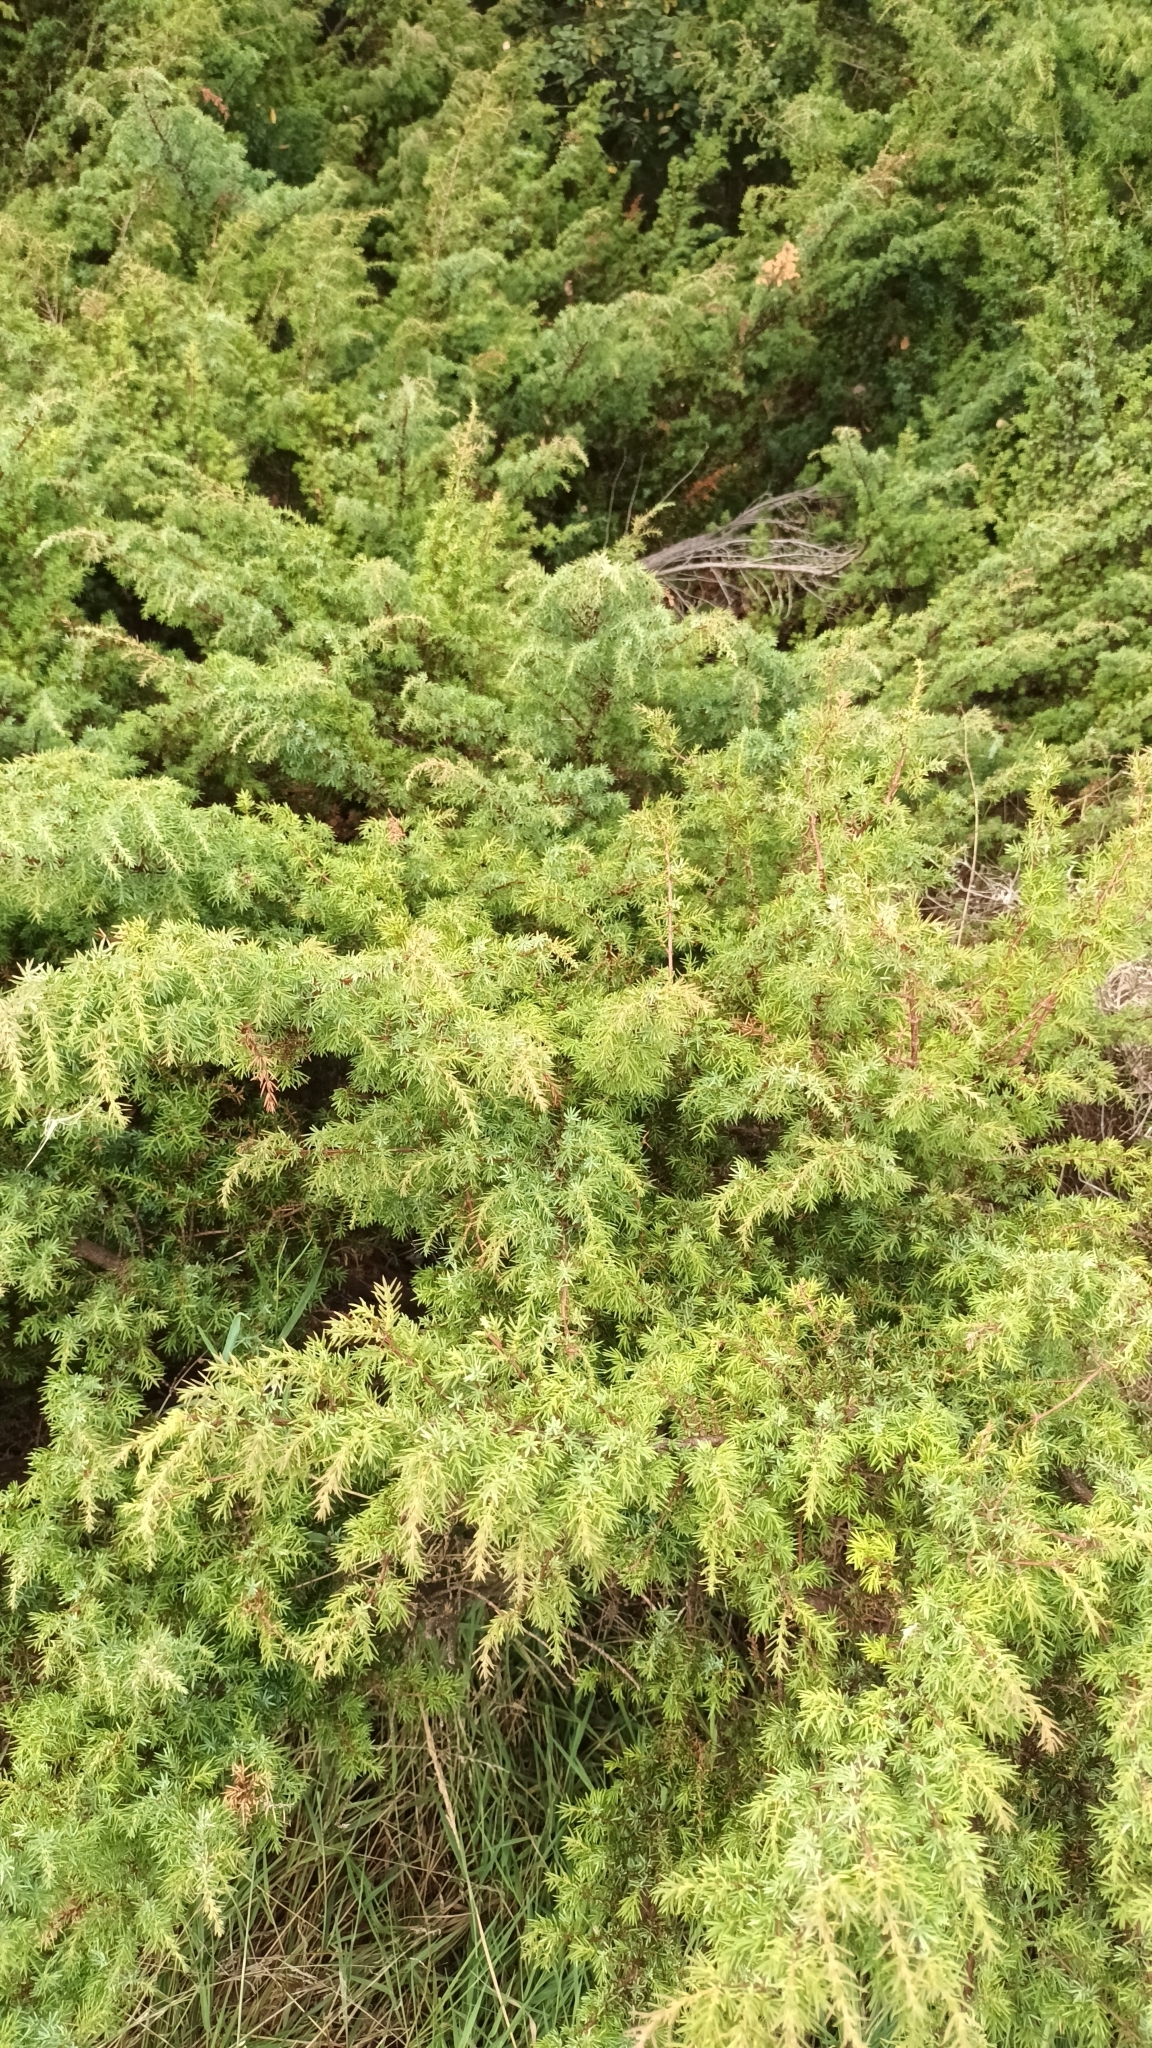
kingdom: Plantae
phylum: Tracheophyta
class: Pinopsida
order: Pinales
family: Cupressaceae
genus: Juniperus
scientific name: Juniperus communis
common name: Common juniper
